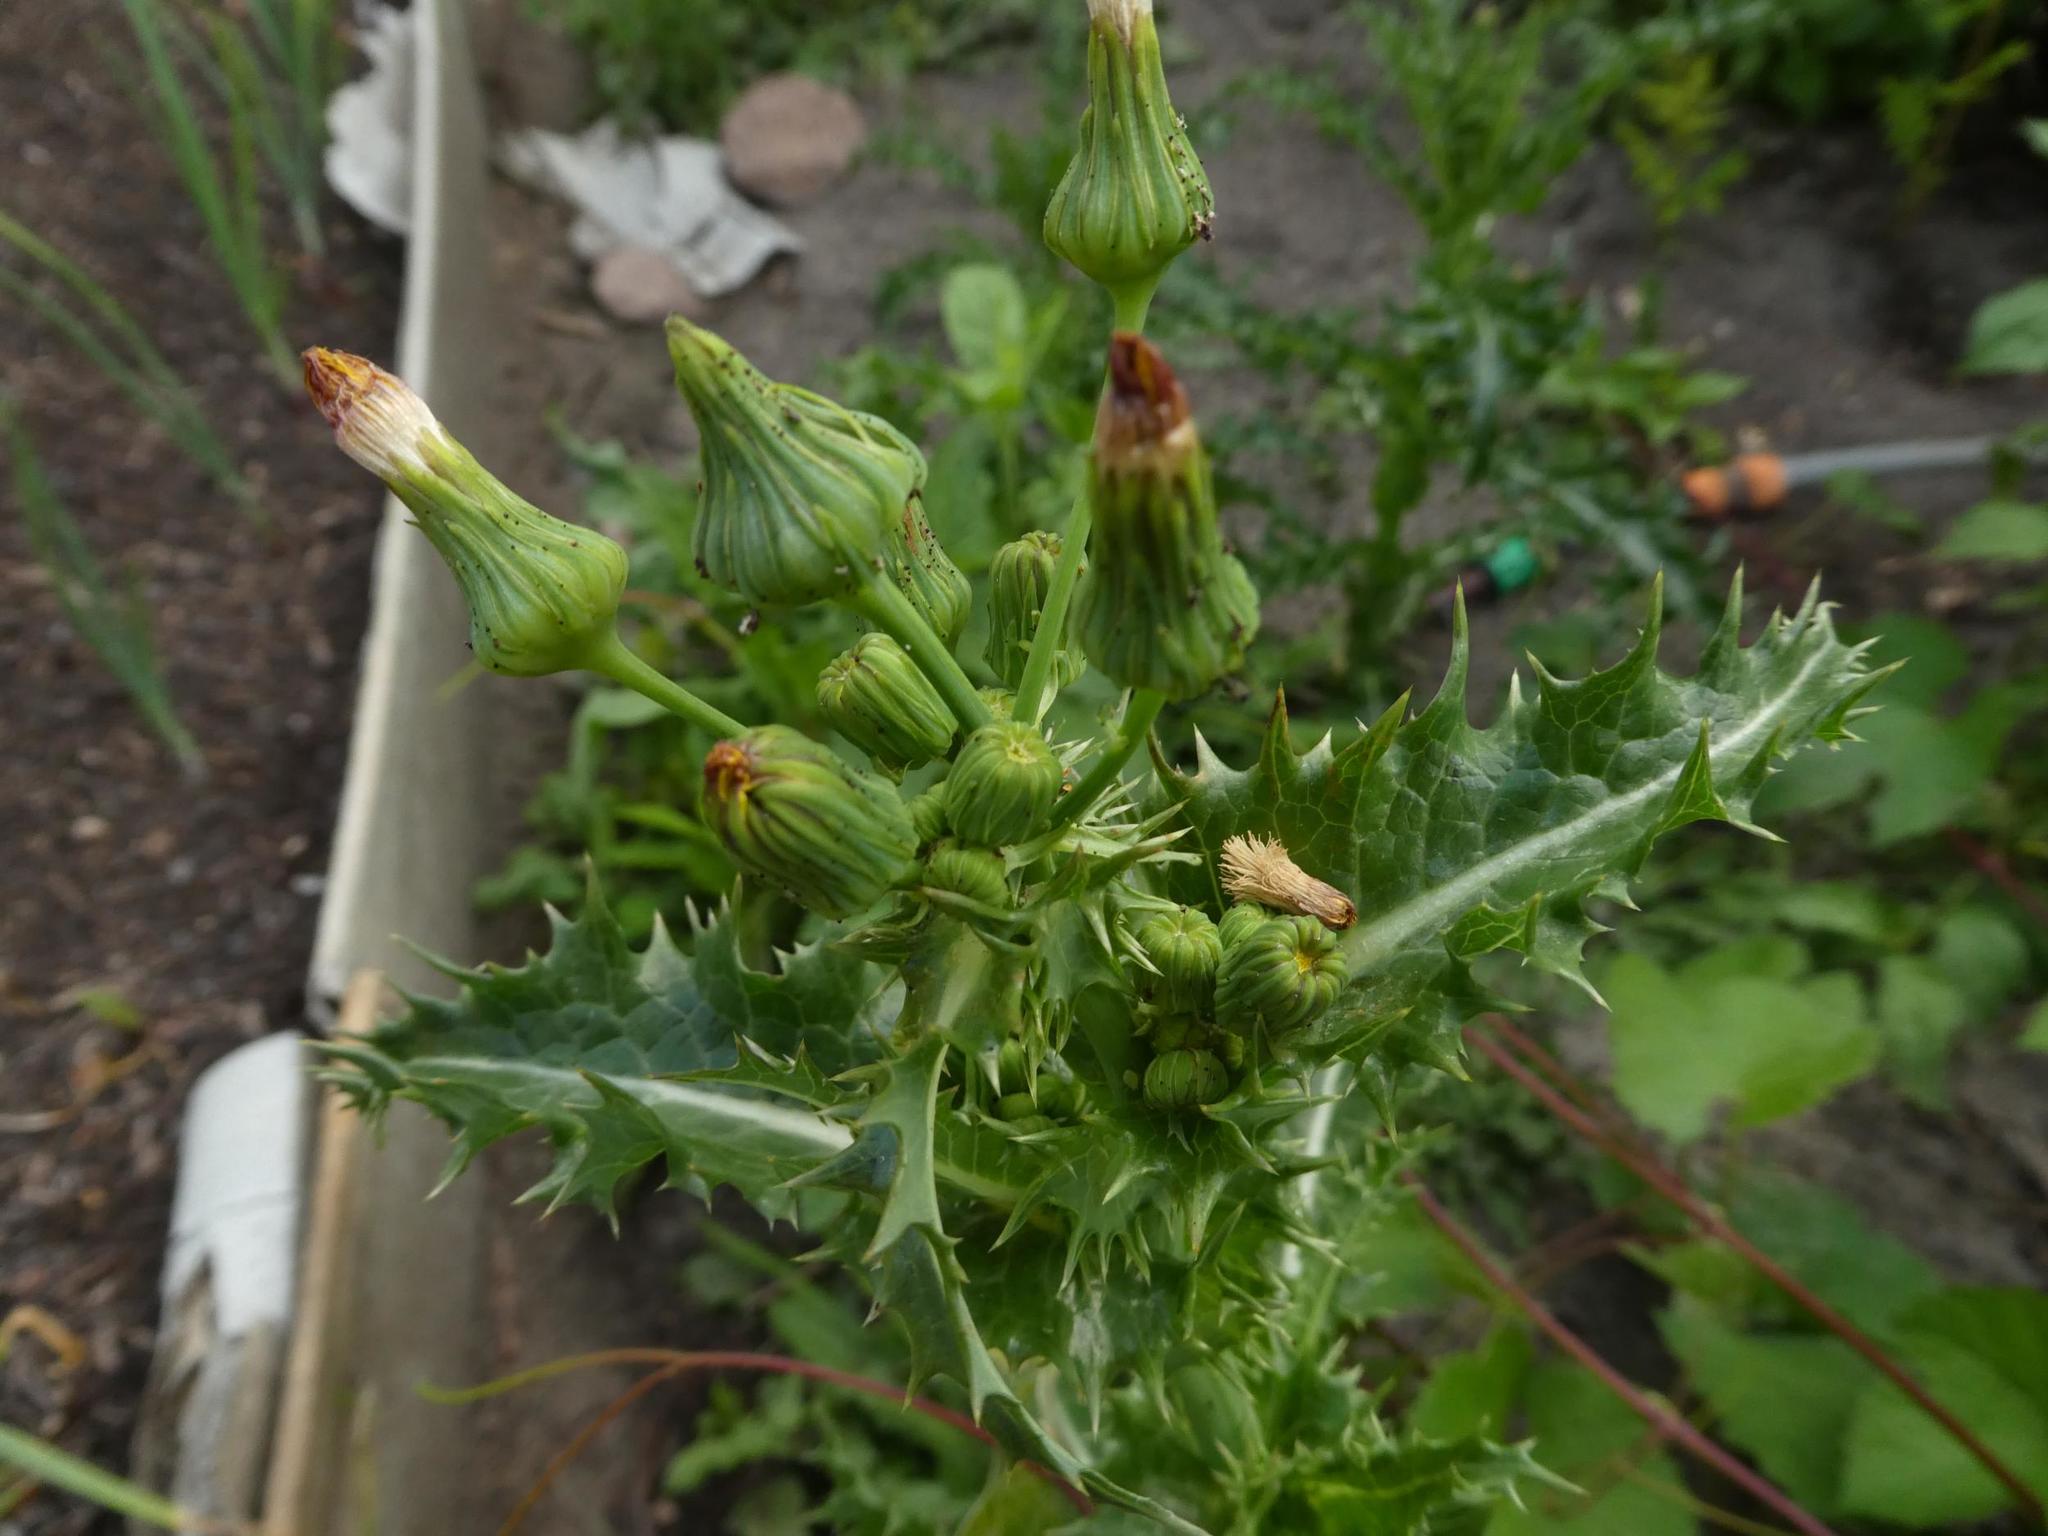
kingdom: Plantae
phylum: Tracheophyta
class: Magnoliopsida
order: Asterales
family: Asteraceae
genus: Sonchus
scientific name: Sonchus asper
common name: Prickly sow-thistle
